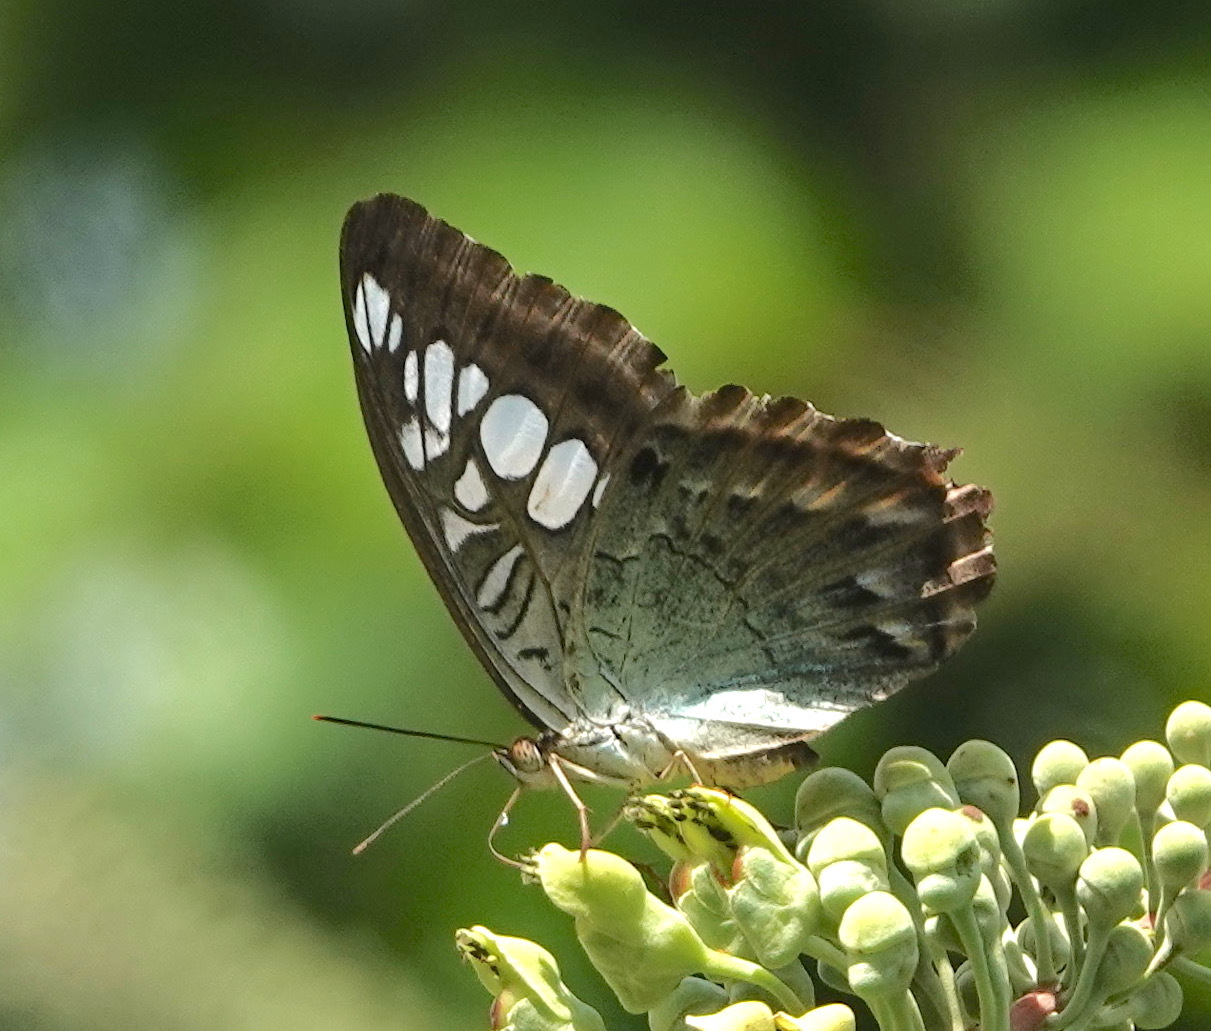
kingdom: Animalia
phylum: Arthropoda
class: Insecta
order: Lepidoptera
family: Nymphalidae
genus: Kallima
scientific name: Kallima sylvia
